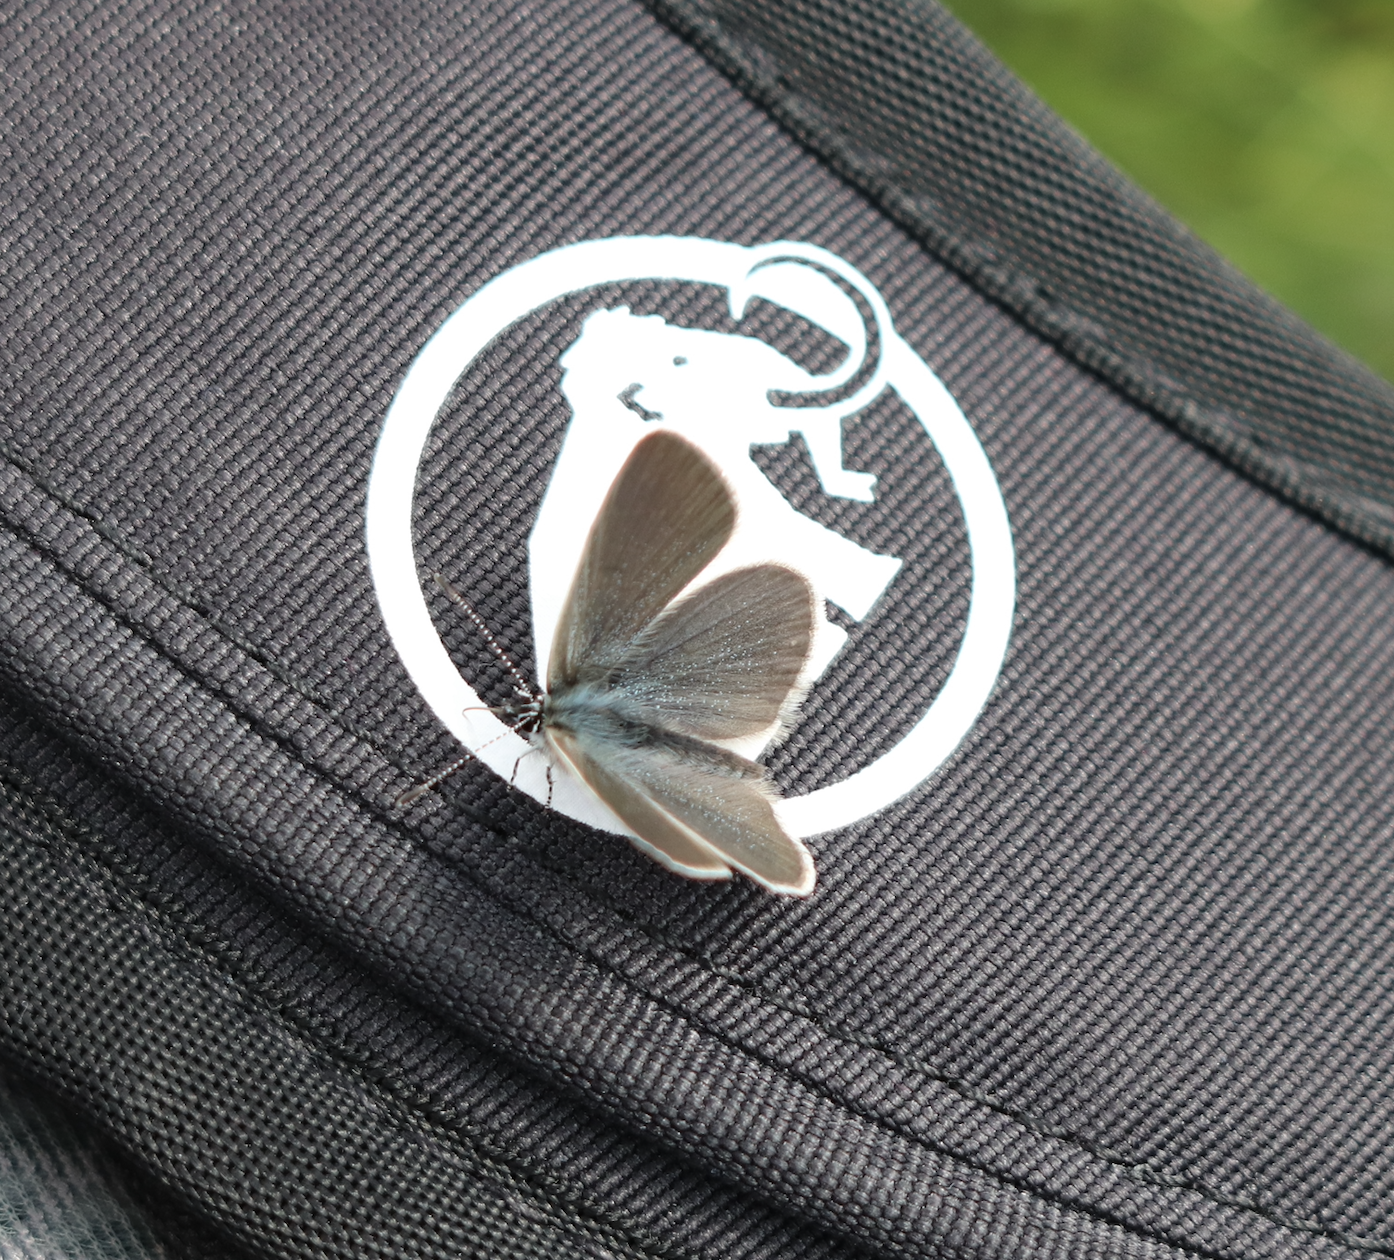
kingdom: Animalia
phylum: Arthropoda
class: Insecta
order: Lepidoptera
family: Lycaenidae
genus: Cupido
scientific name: Cupido minimus
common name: Small blue
